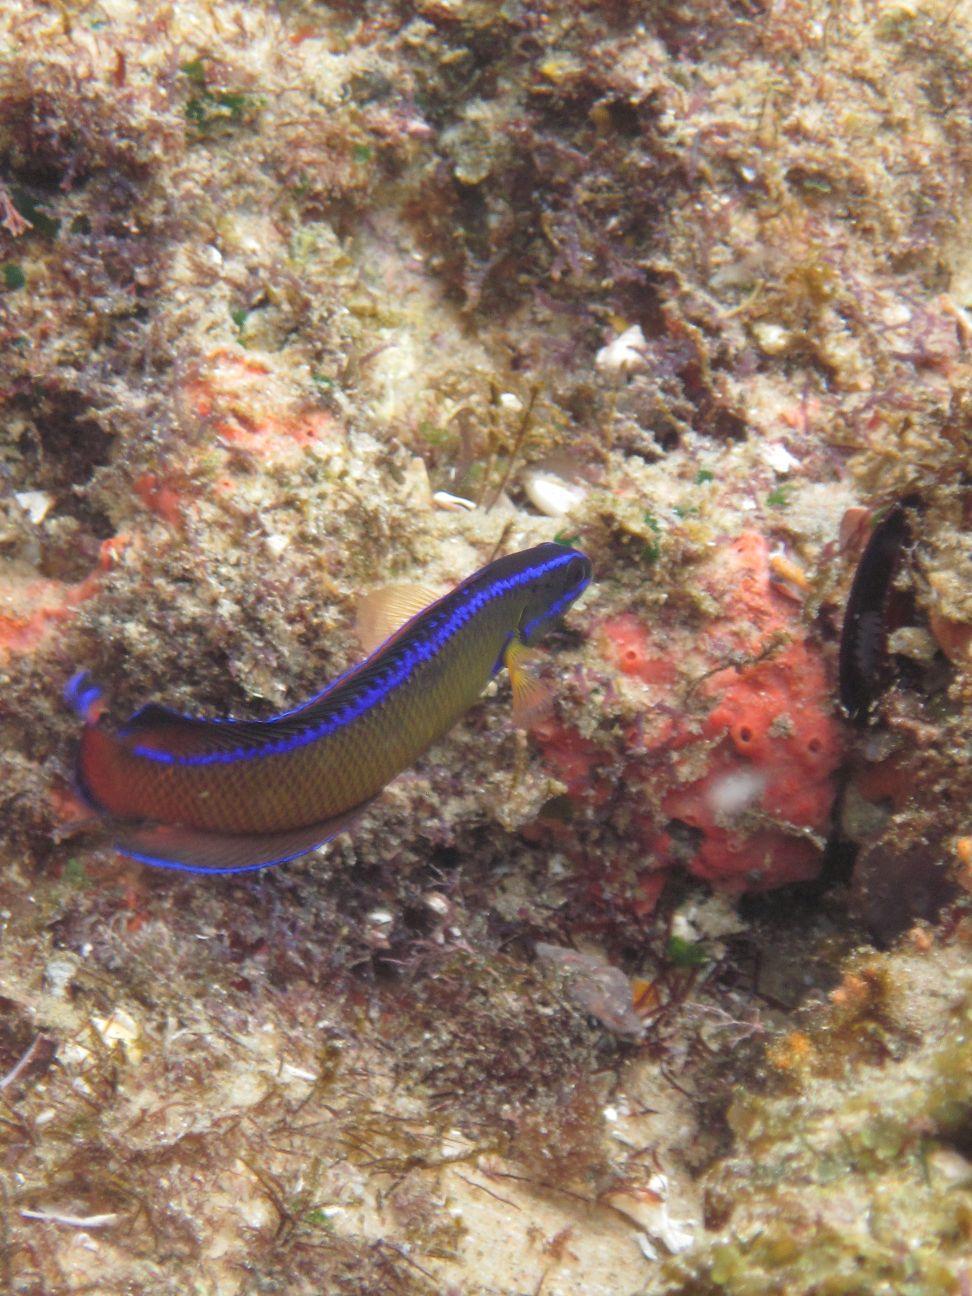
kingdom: Animalia
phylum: Chordata
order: Perciformes
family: Pseudochromidae
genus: Pseudochromis
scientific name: Pseudochromis dutoiti
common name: Dutoiti
